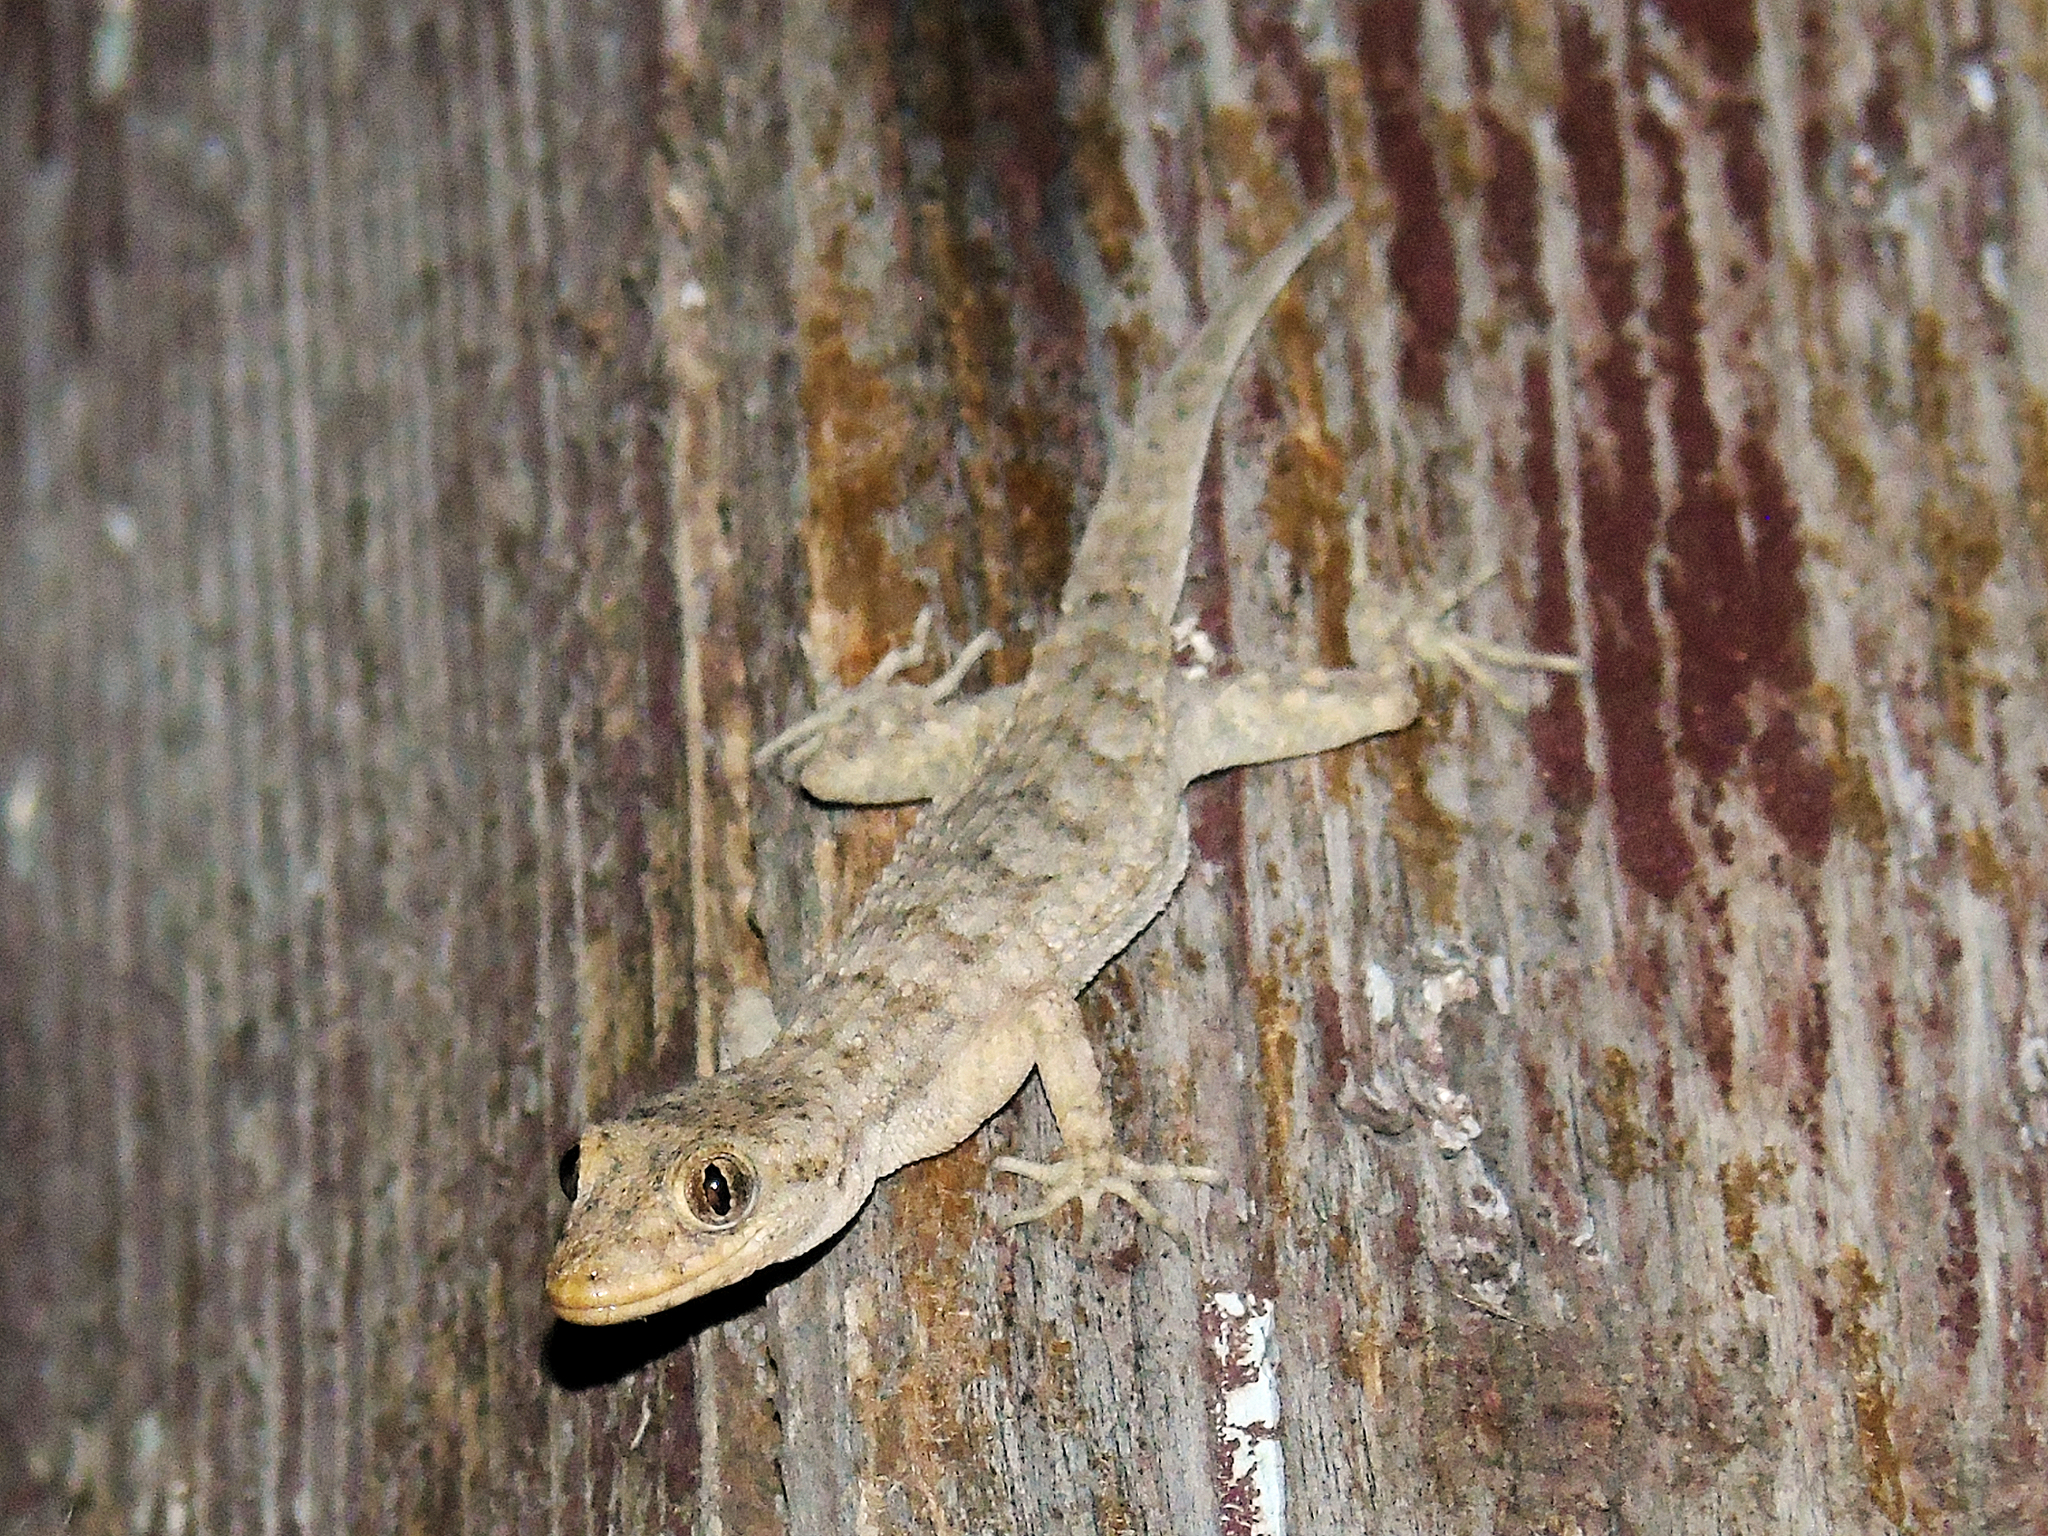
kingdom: Animalia
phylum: Chordata
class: Squamata
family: Gekkonidae
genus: Mediodactylus
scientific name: Mediodactylus kotschyi
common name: Kotschy's gecko
